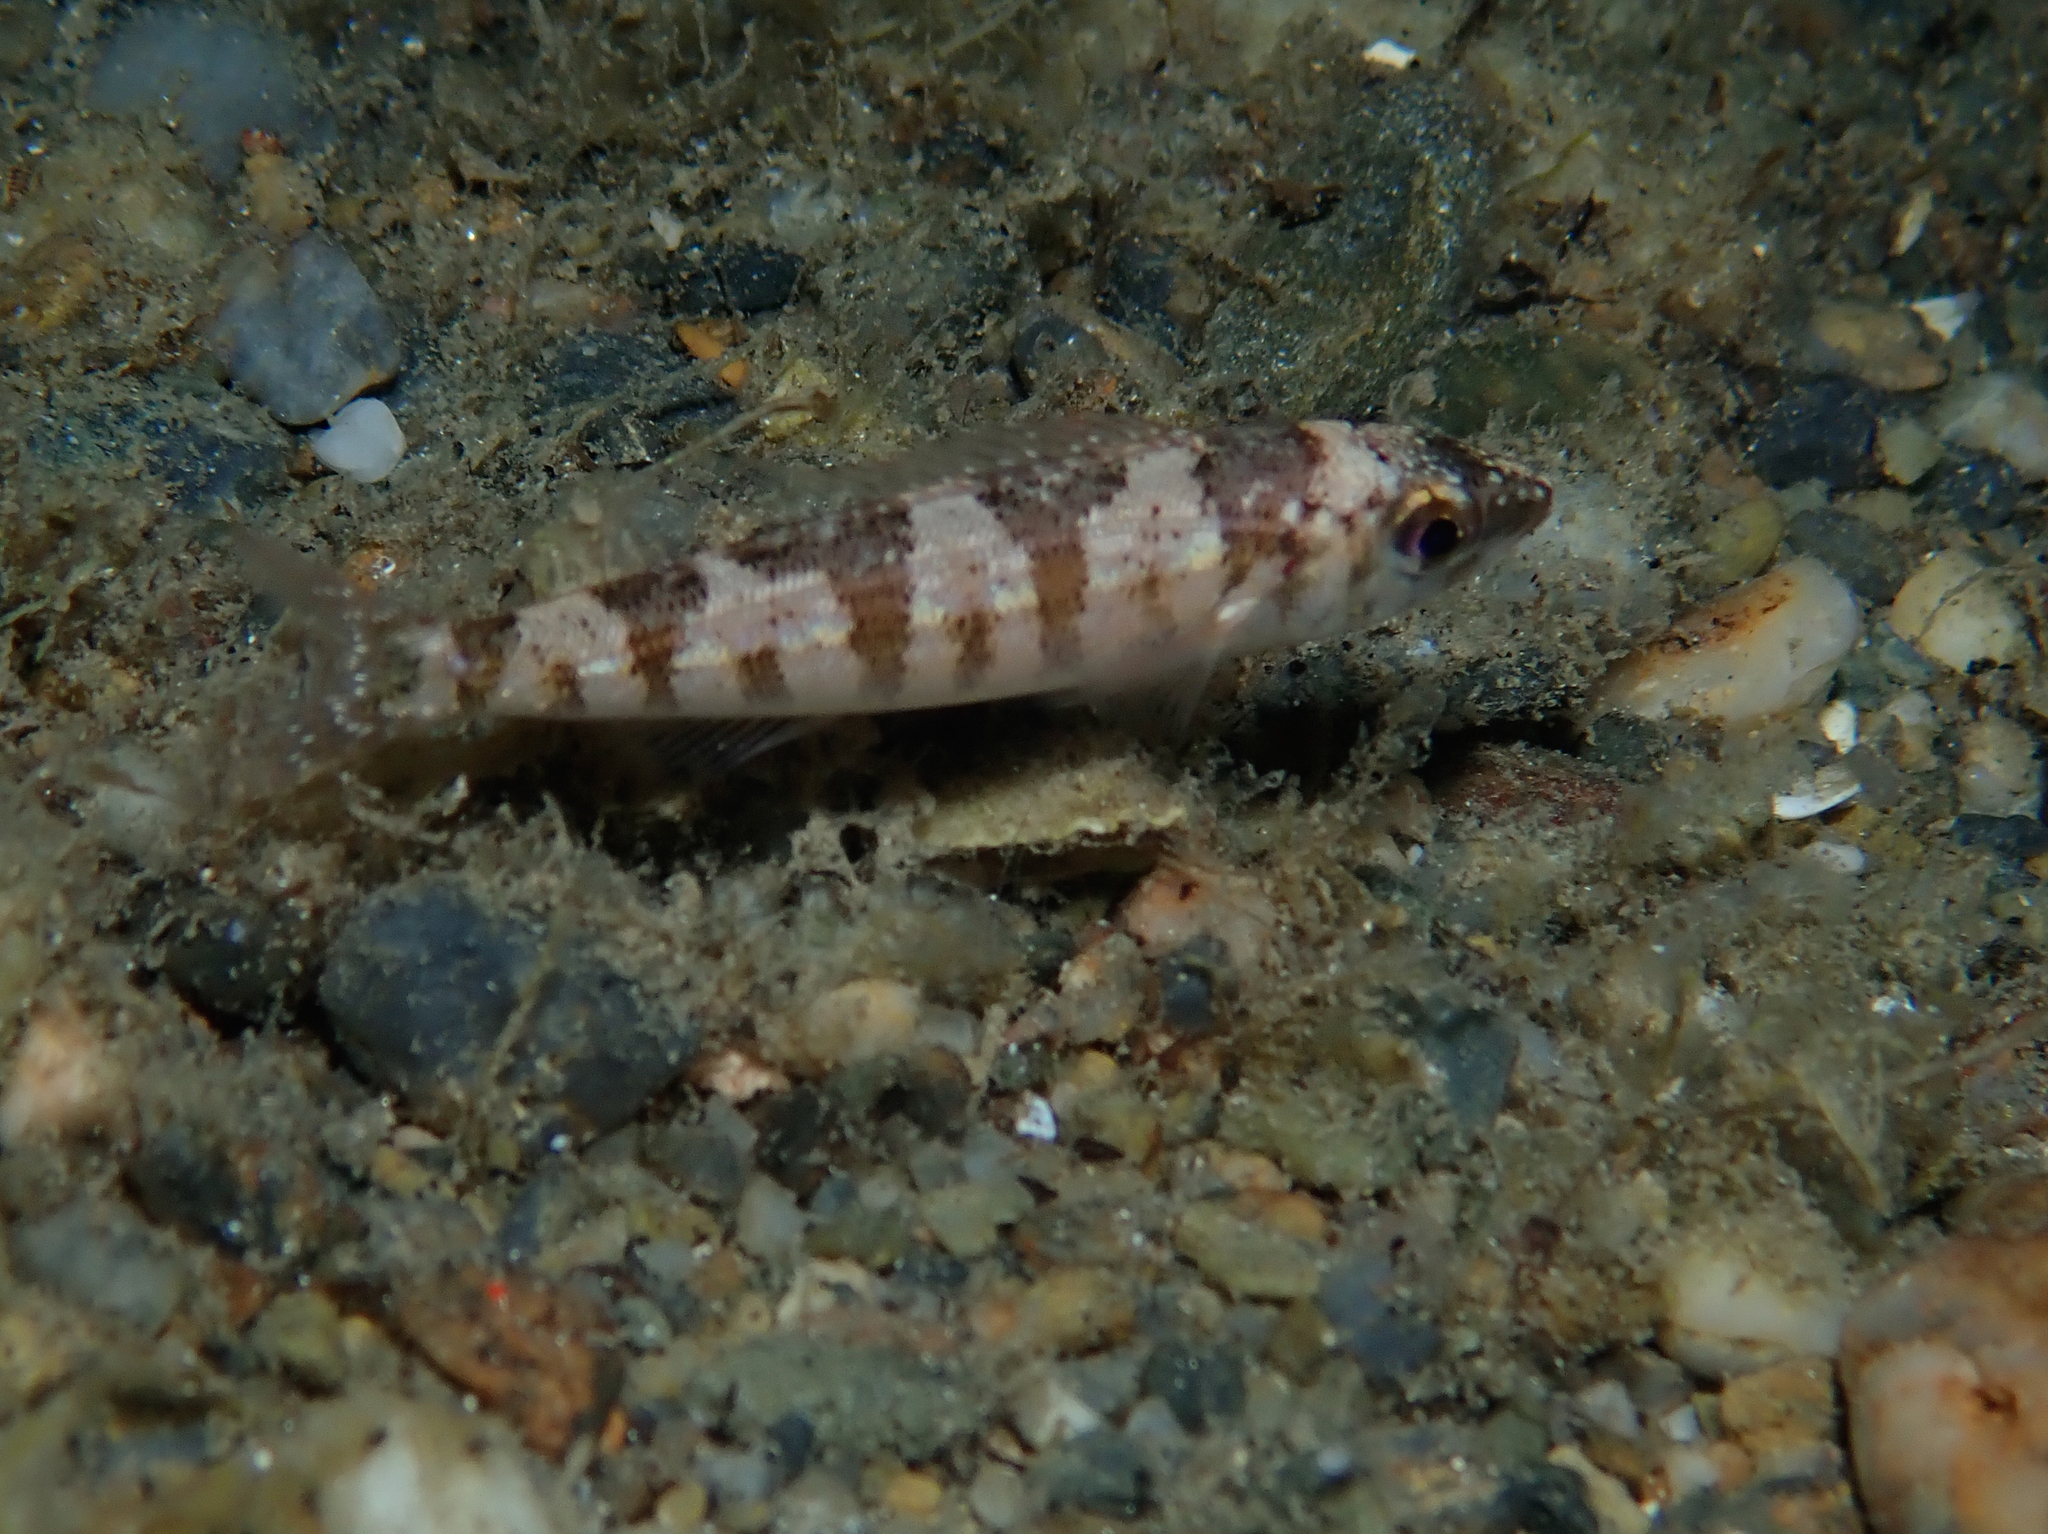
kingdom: Animalia
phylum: Chordata
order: Perciformes
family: Sparidae
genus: Spicara
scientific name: Spicara smaris
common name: Picarel
